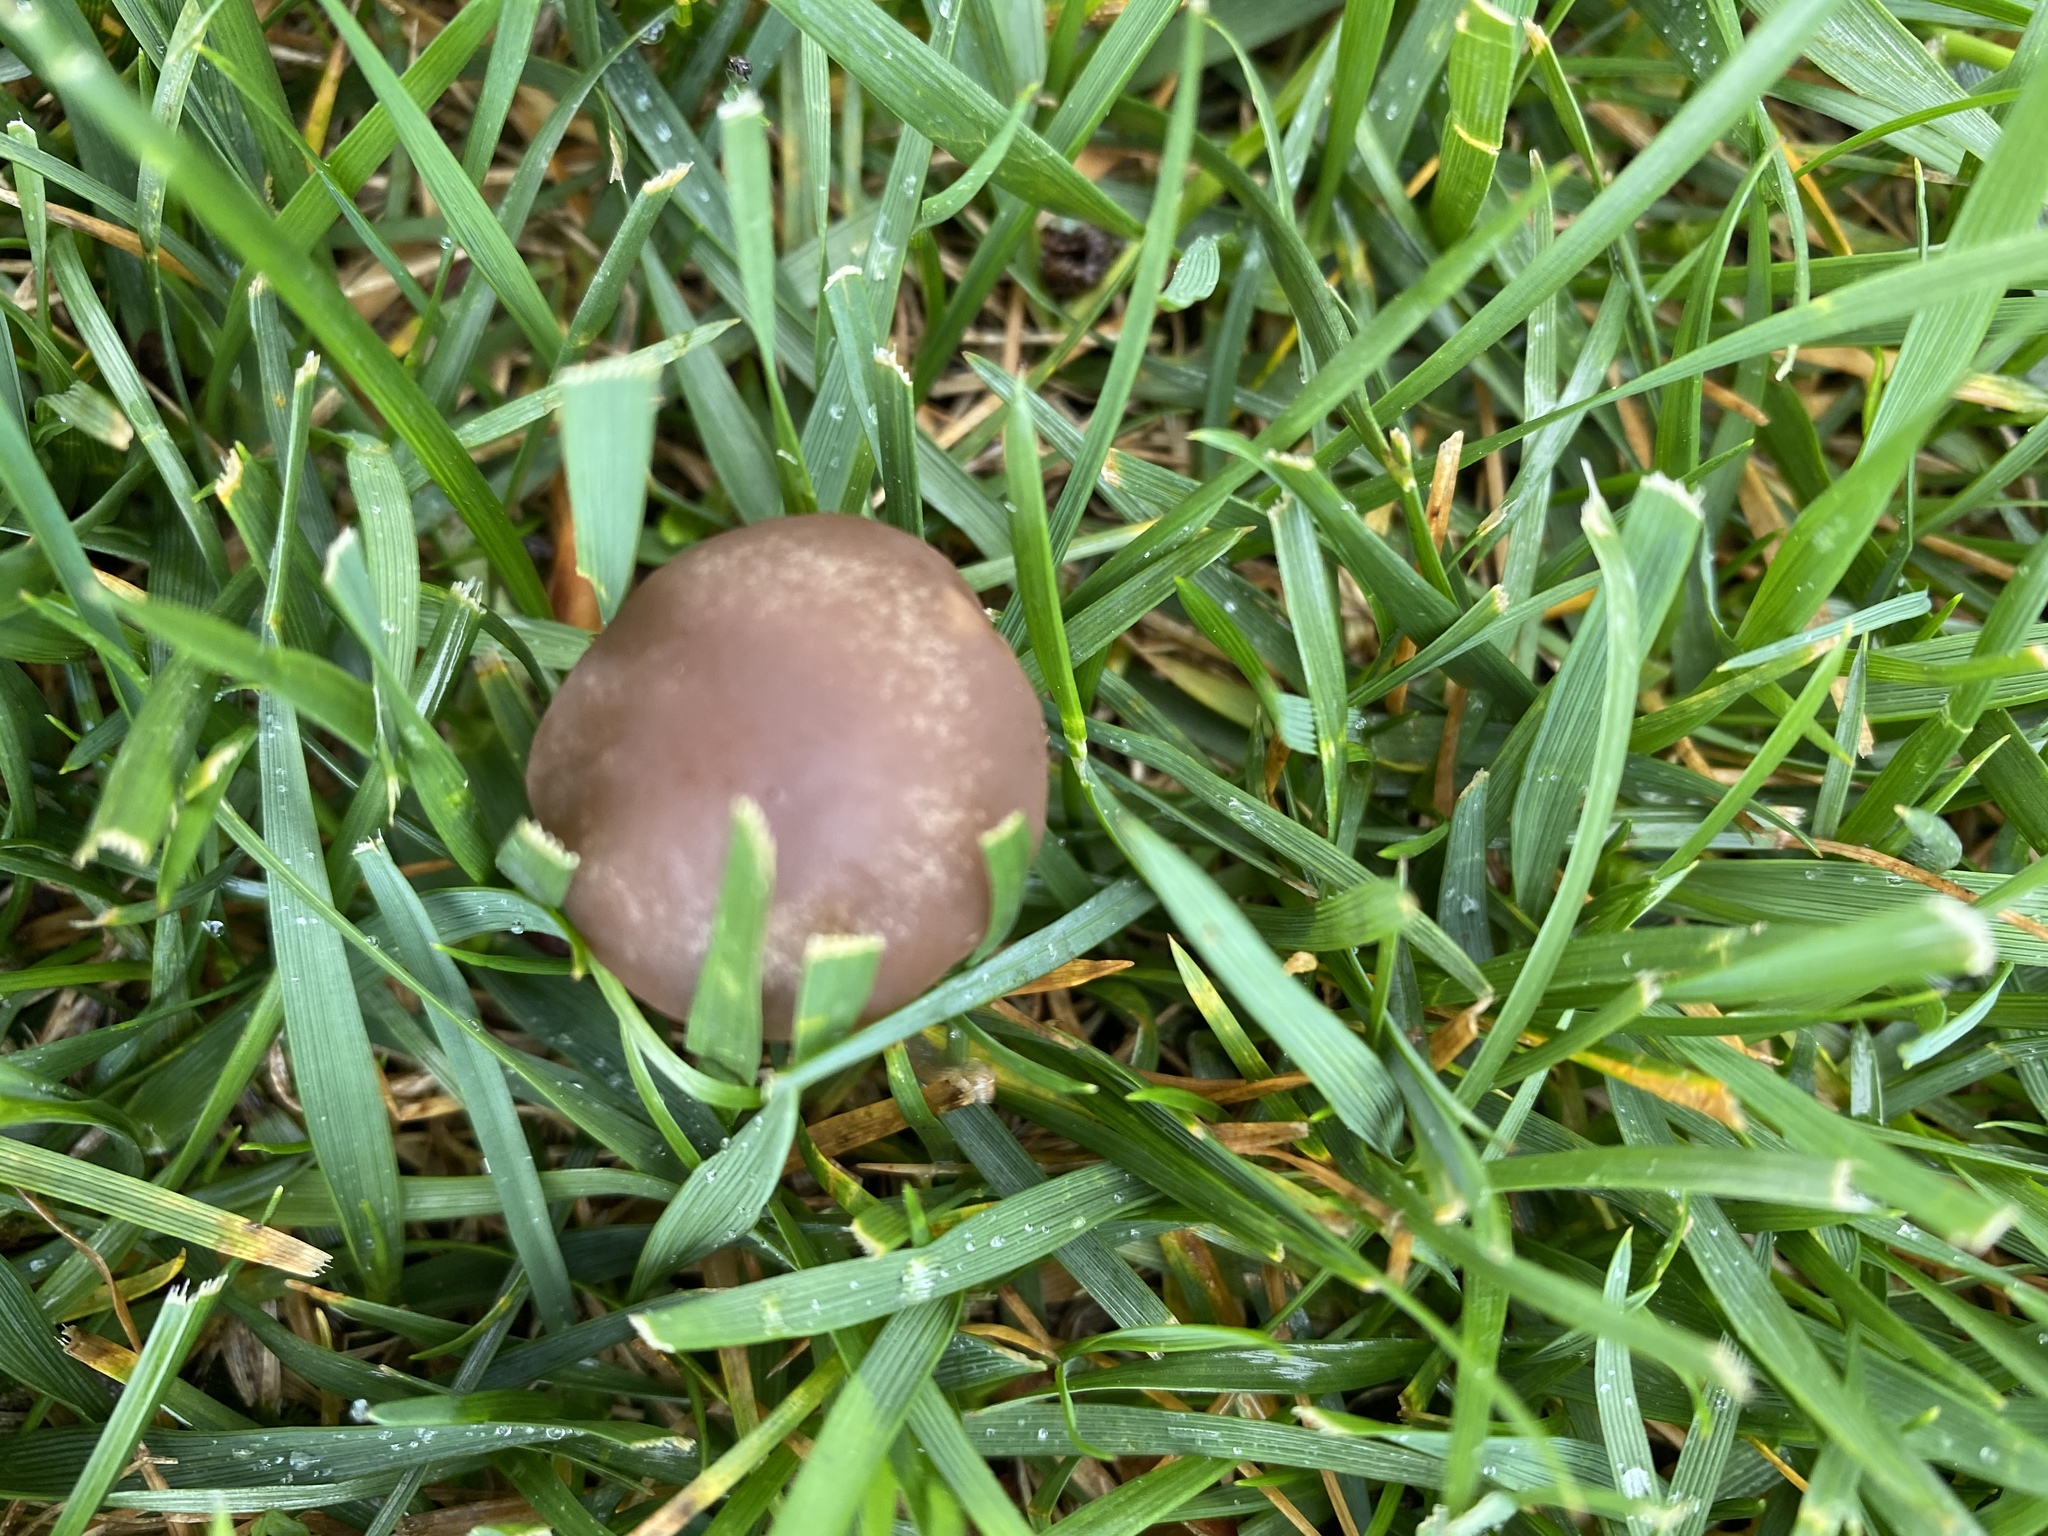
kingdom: Fungi
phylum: Basidiomycota
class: Agaricomycetes
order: Agaricales
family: Bolbitiaceae
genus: Panaeolina
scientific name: Panaeolina foenisecii
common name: Brown hay cap
